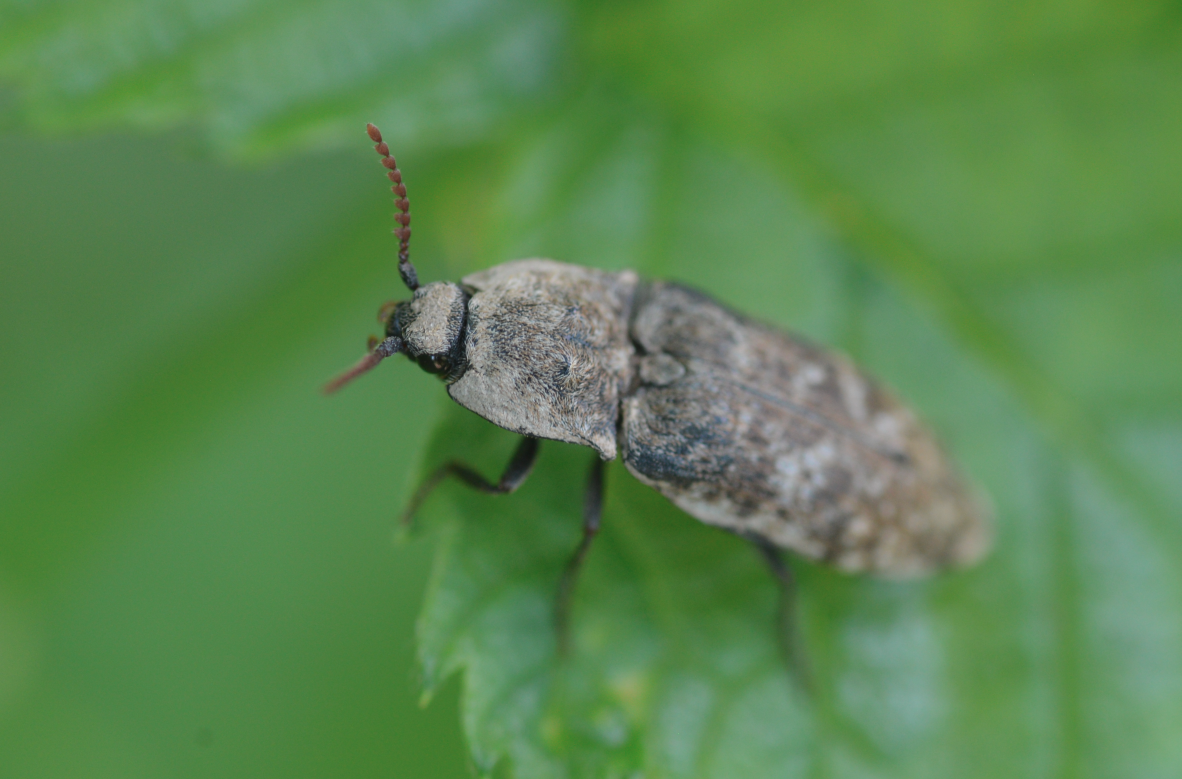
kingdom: Animalia
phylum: Arthropoda
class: Insecta
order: Coleoptera
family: Elateridae
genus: Agrypnus
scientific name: Agrypnus murinus
